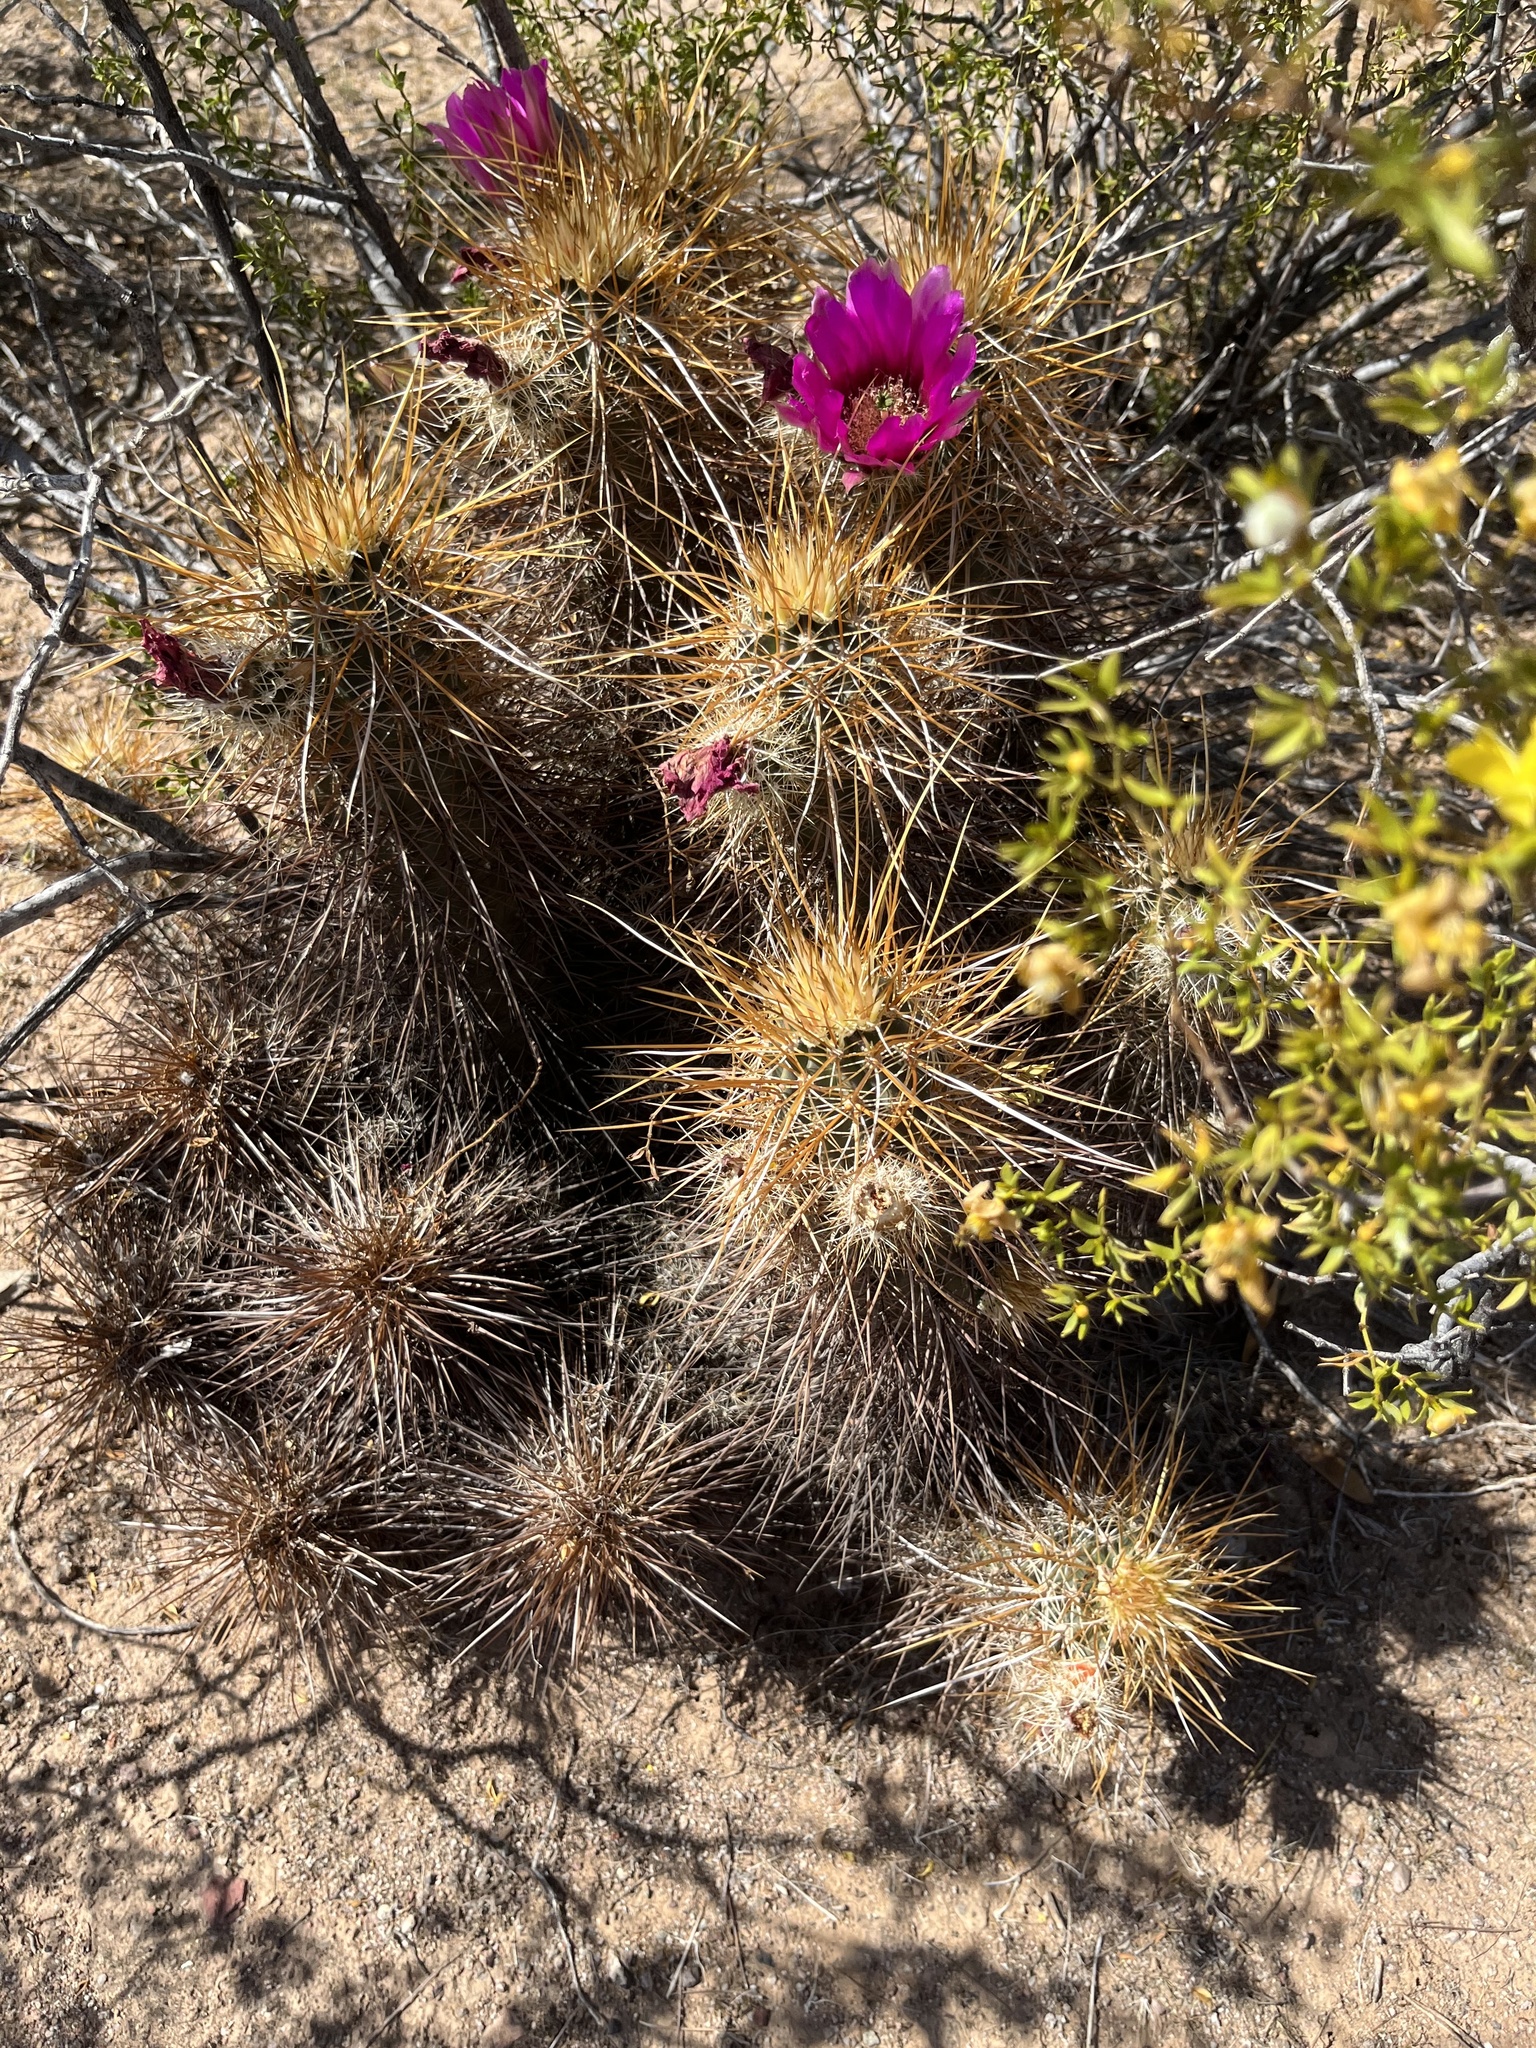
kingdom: Plantae
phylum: Tracheophyta
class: Magnoliopsida
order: Caryophyllales
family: Cactaceae
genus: Echinocereus
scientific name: Echinocereus engelmannii
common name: Engelmann's hedgehog cactus
